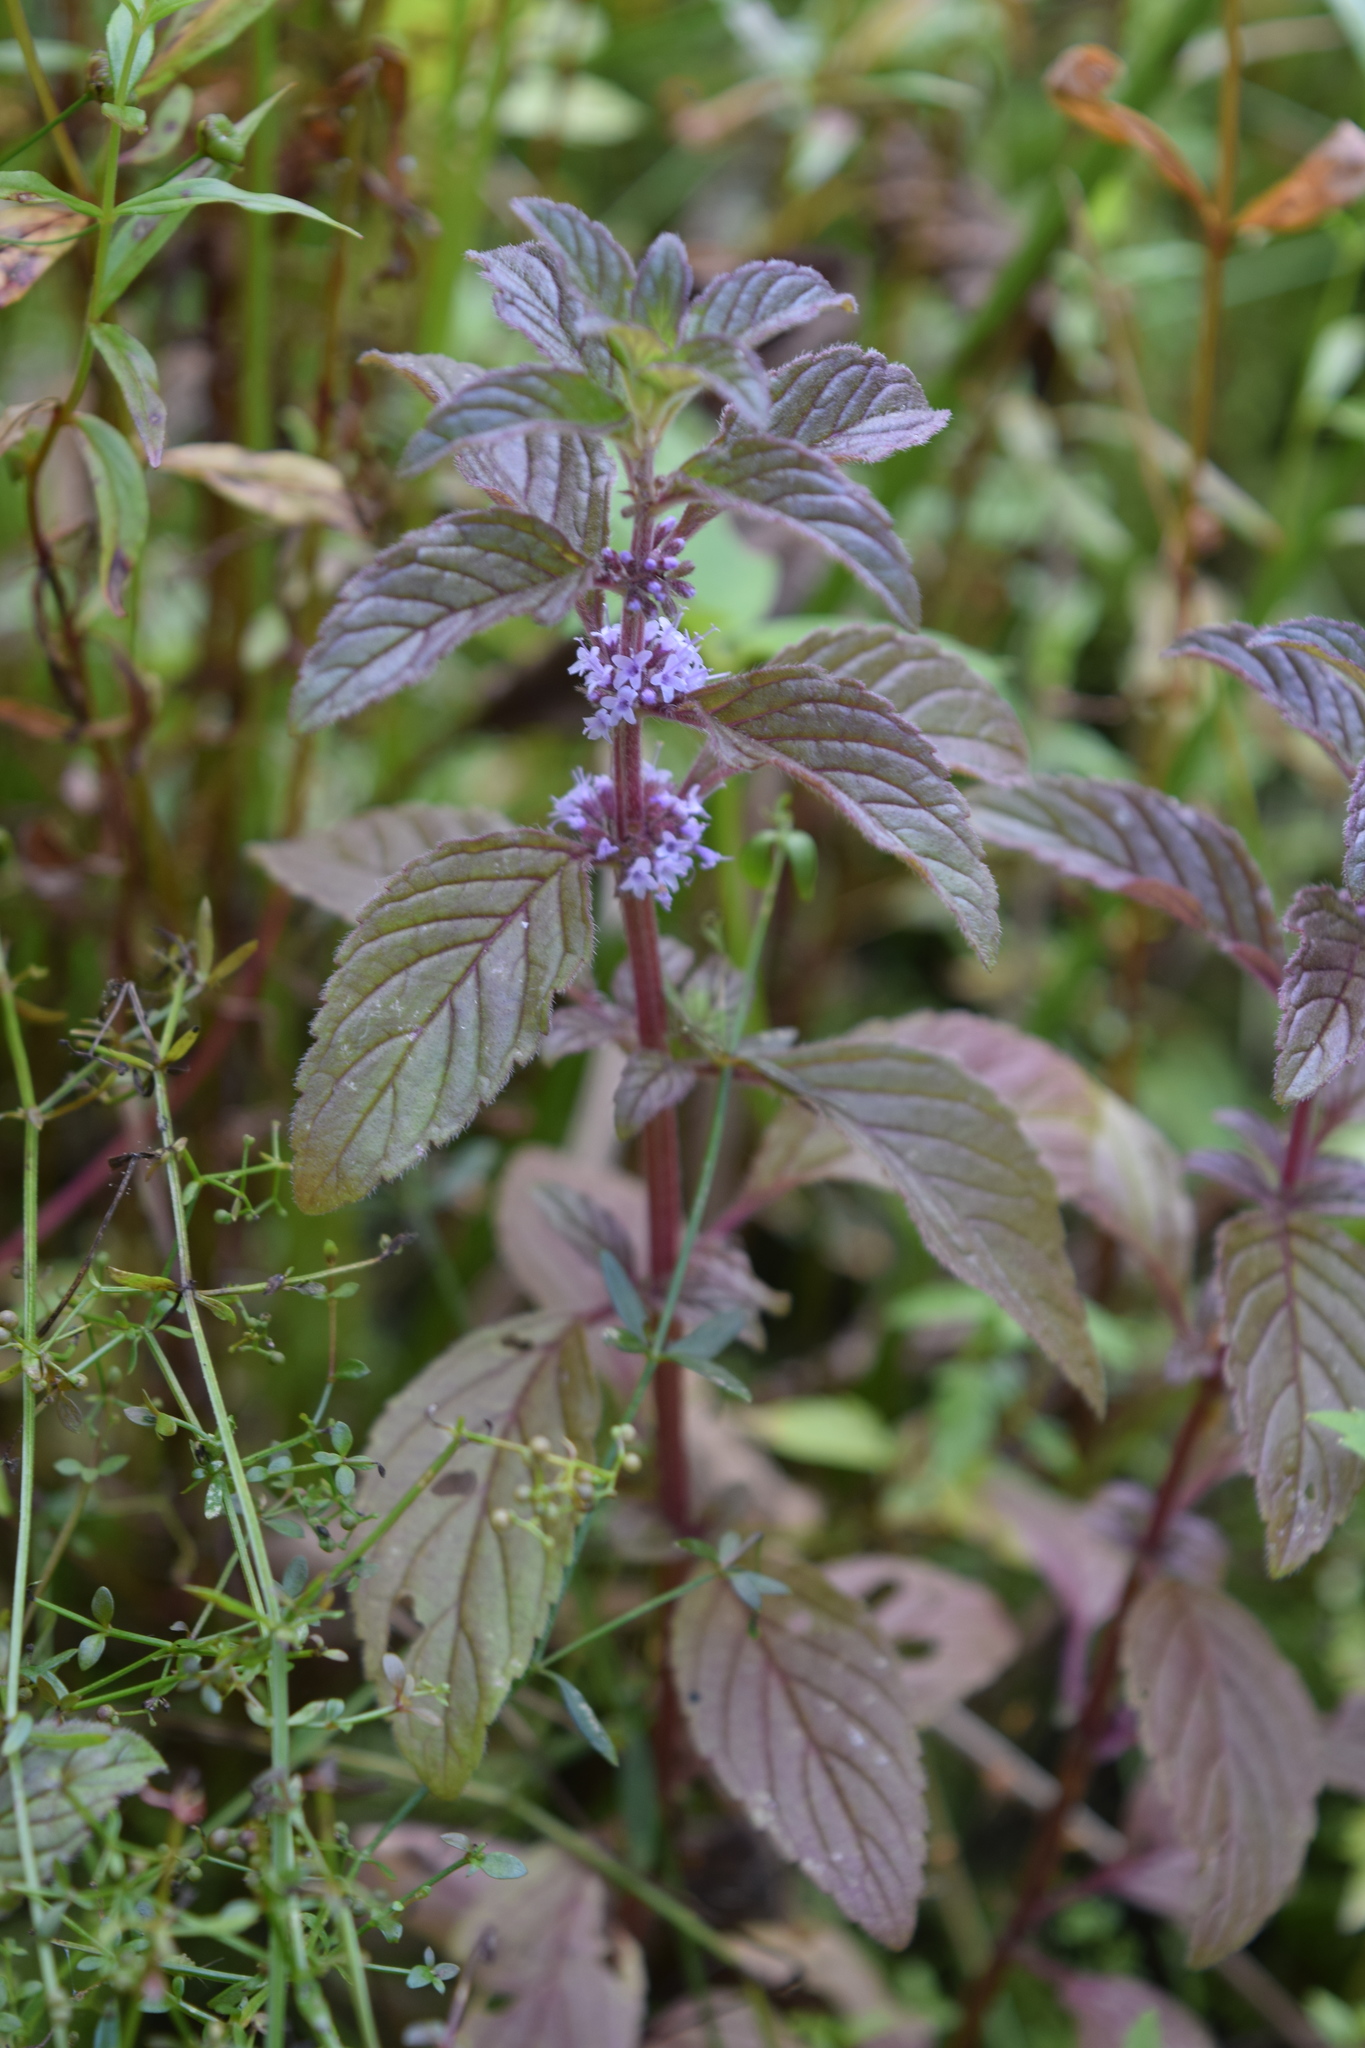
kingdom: Plantae
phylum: Tracheophyta
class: Magnoliopsida
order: Lamiales
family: Lamiaceae
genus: Mentha
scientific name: Mentha arvensis
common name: Corn mint
